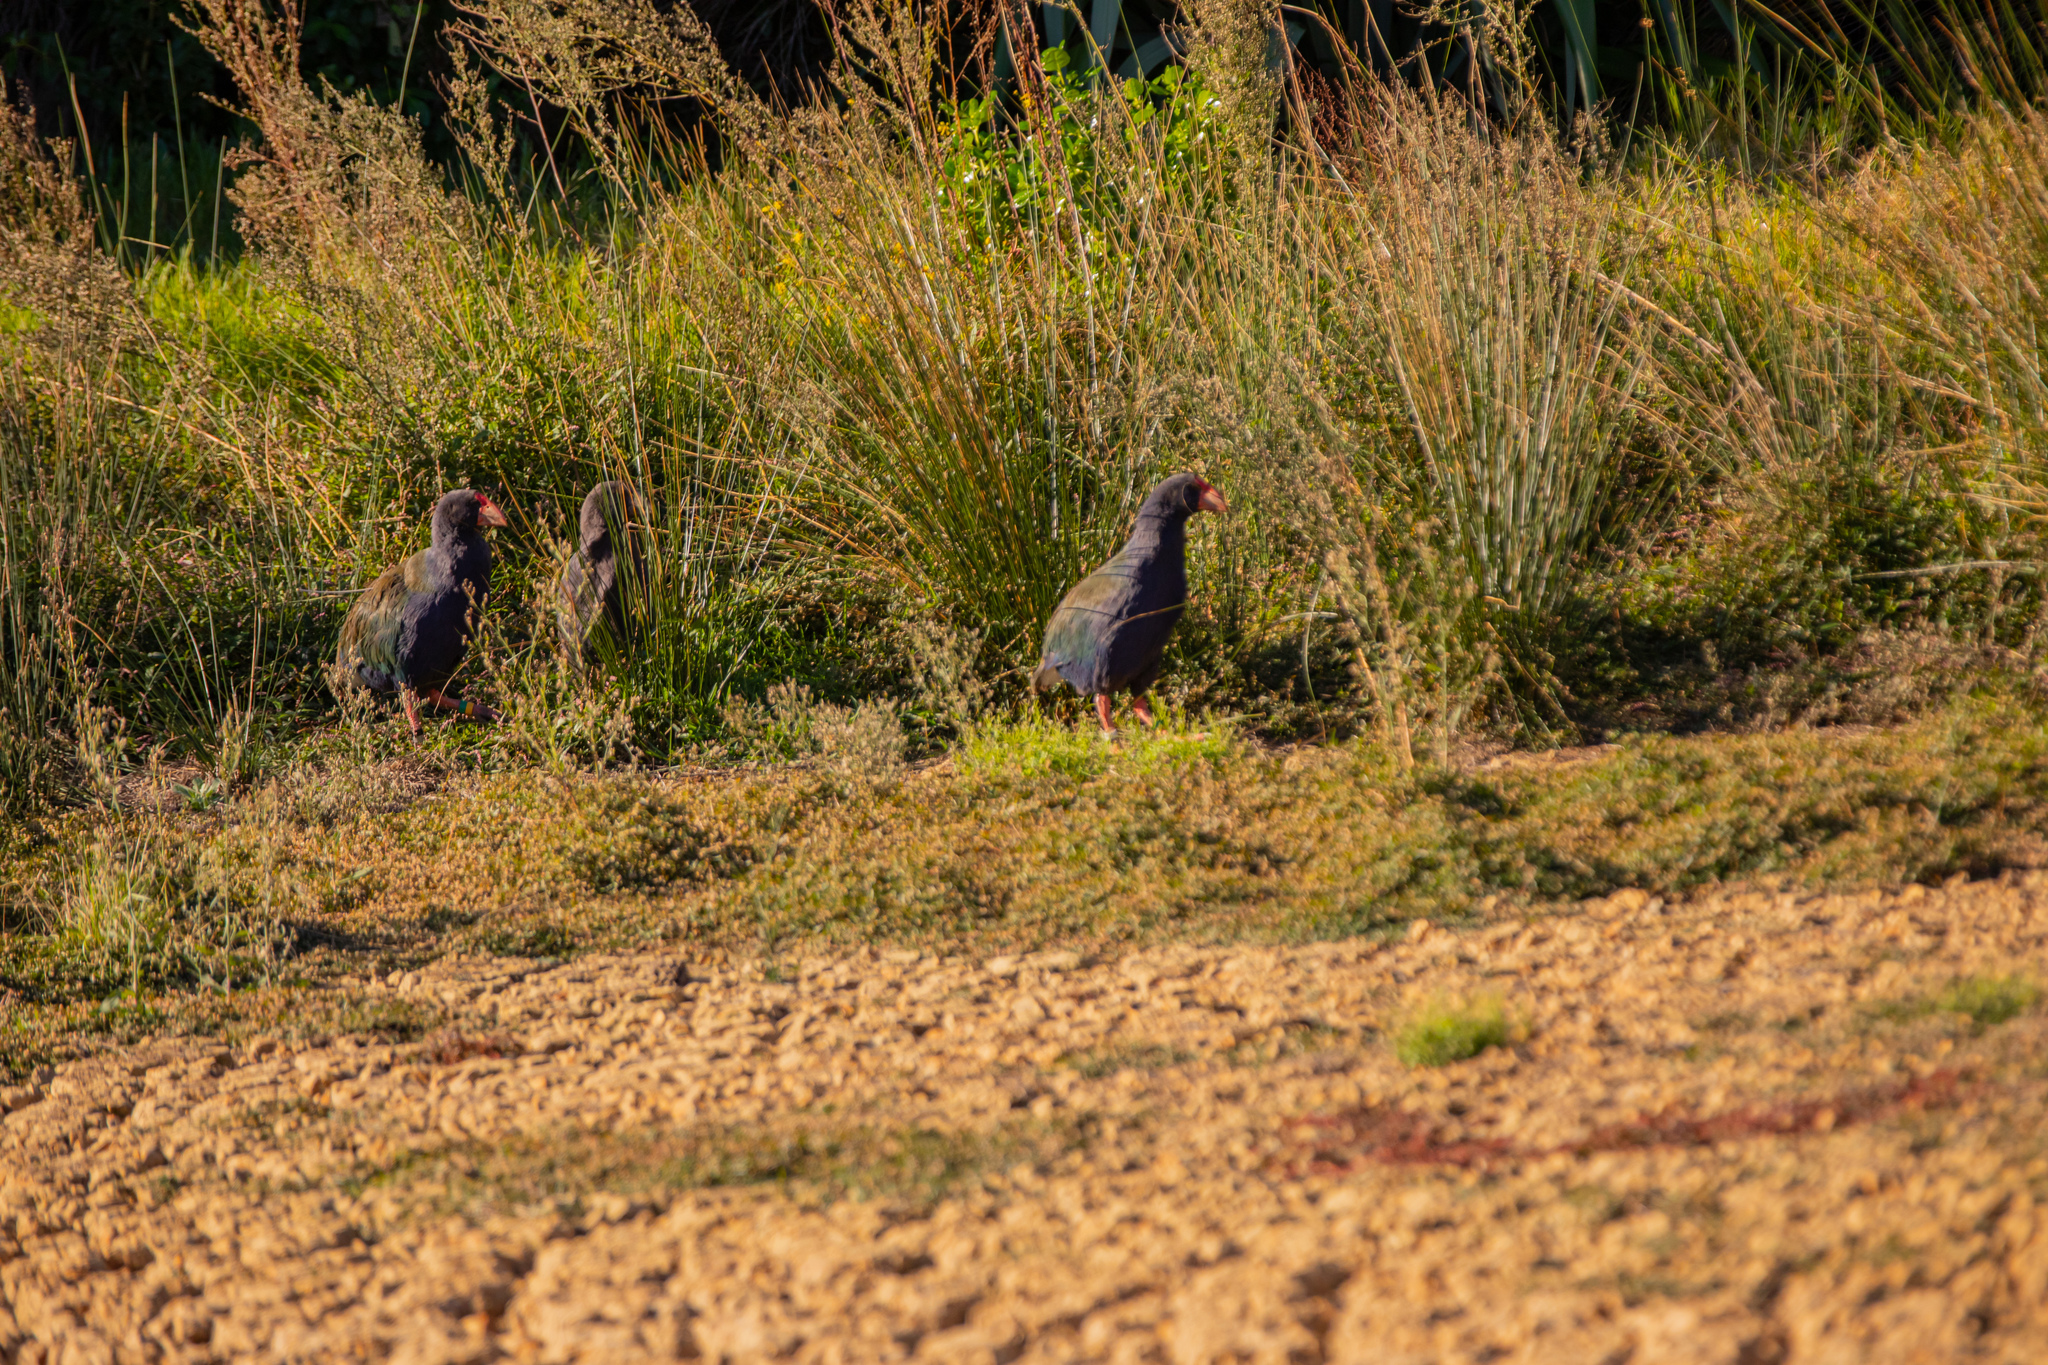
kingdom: Animalia
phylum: Chordata
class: Aves
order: Gruiformes
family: Rallidae
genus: Porphyrio
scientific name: Porphyrio hochstetteri
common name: South island takahe
